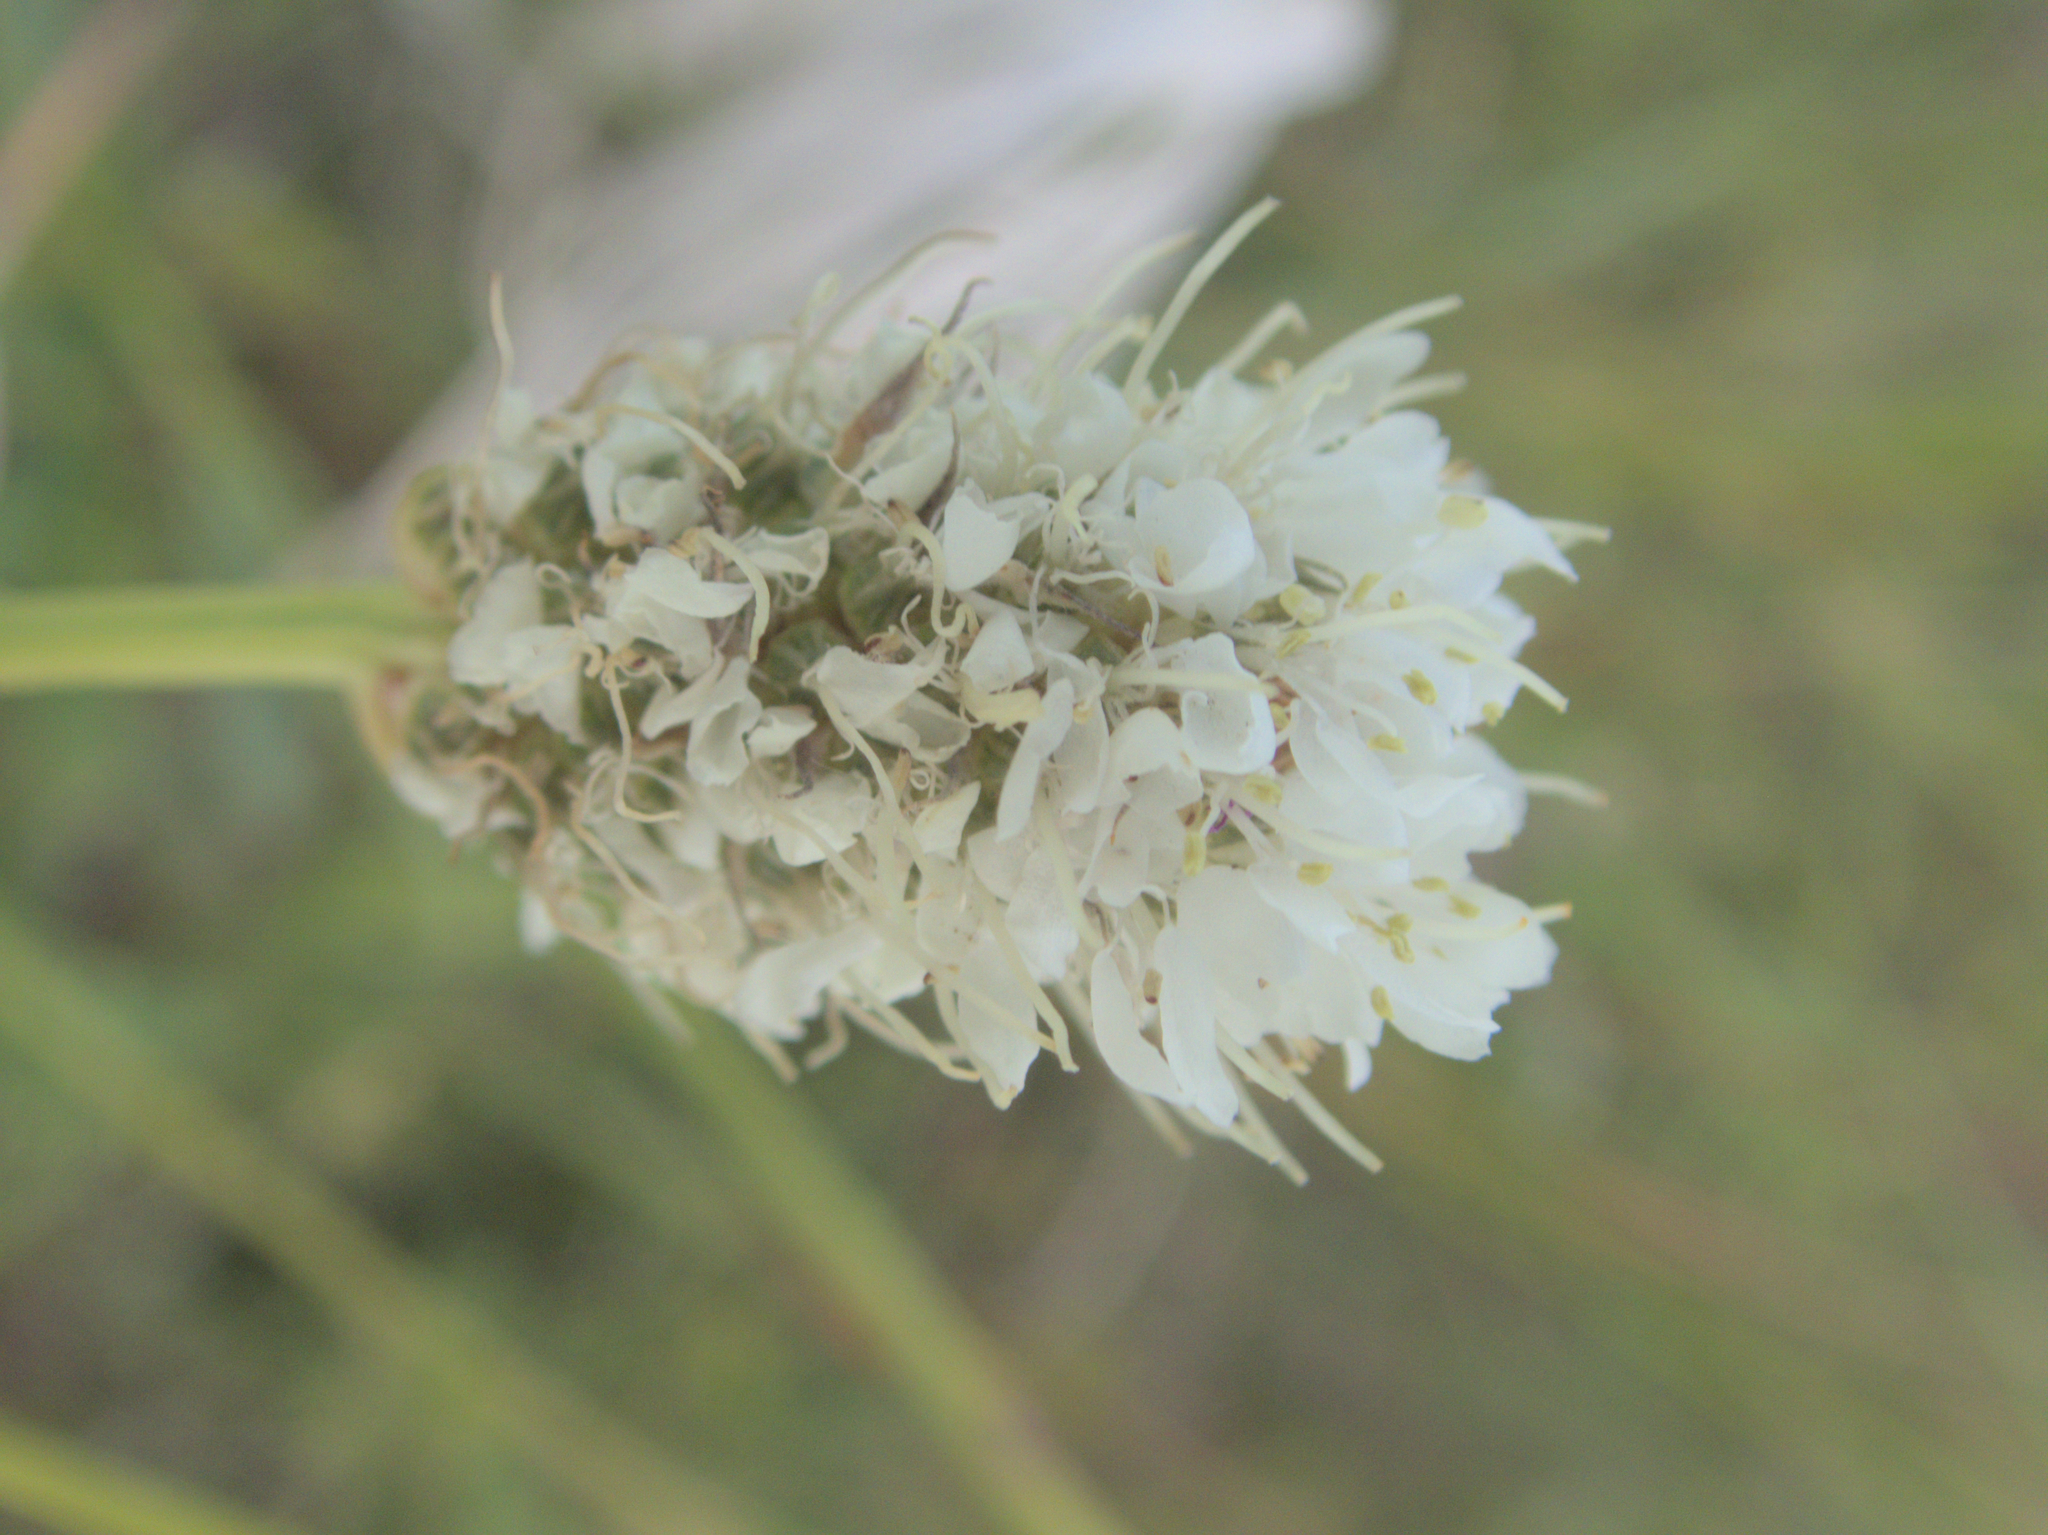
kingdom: Plantae
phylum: Tracheophyta
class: Magnoliopsida
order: Fabales
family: Fabaceae
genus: Dalea
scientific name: Dalea candida
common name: White prairie-clover
